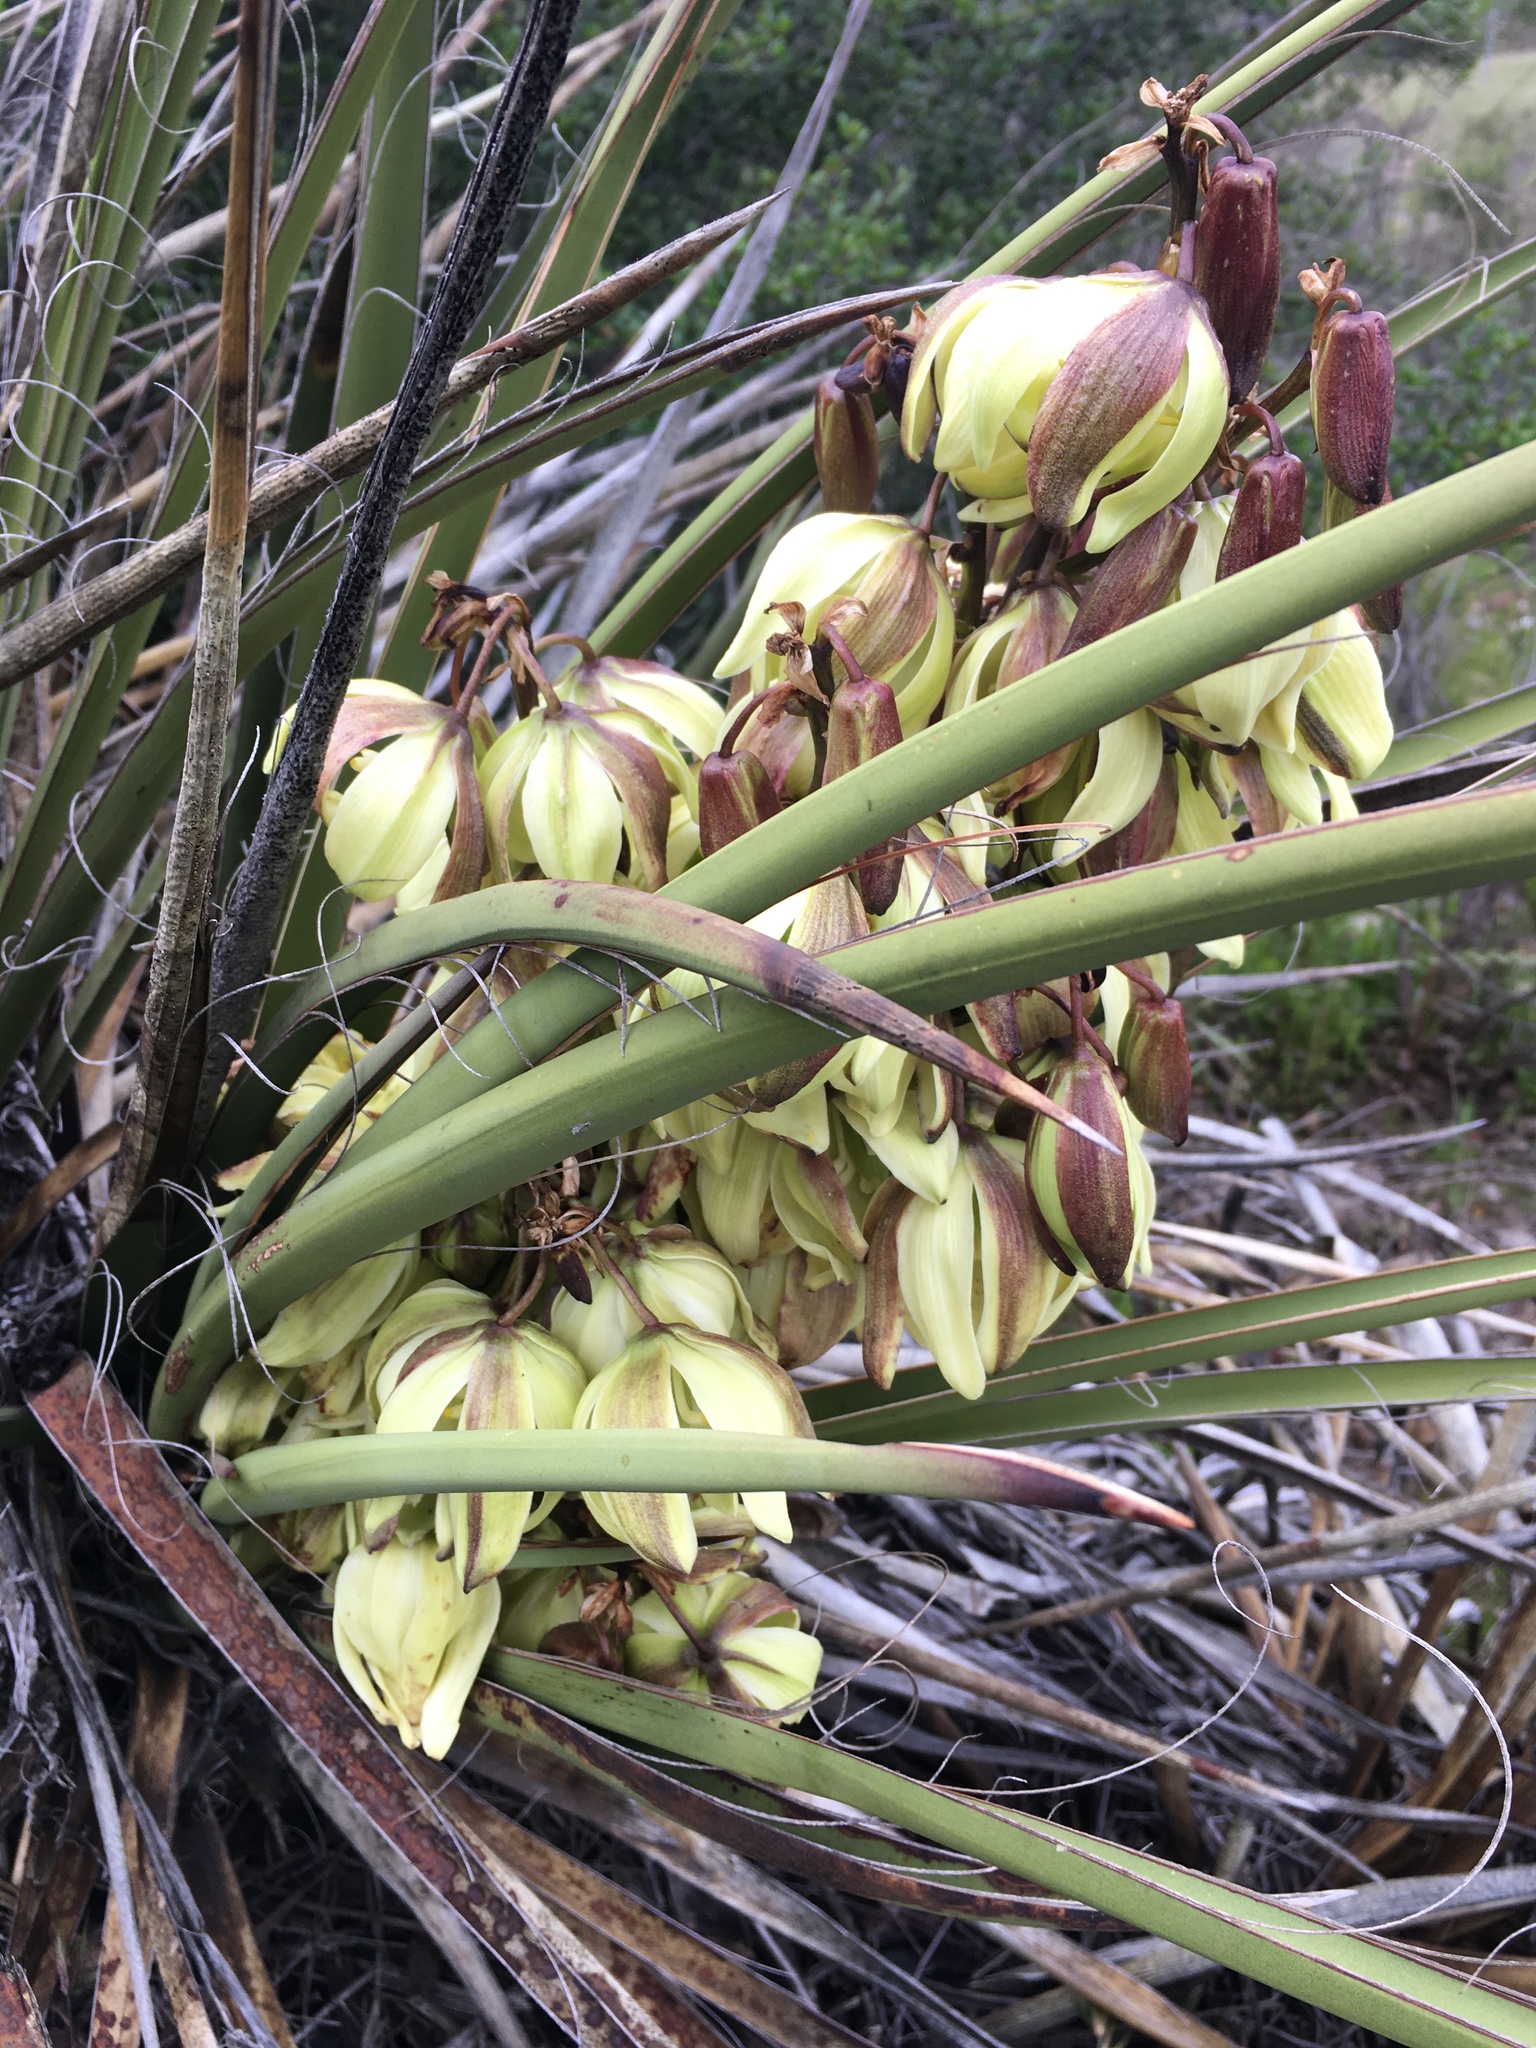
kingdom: Plantae
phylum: Tracheophyta
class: Liliopsida
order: Asparagales
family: Asparagaceae
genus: Yucca
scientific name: Yucca schidigera
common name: Mojave yucca
